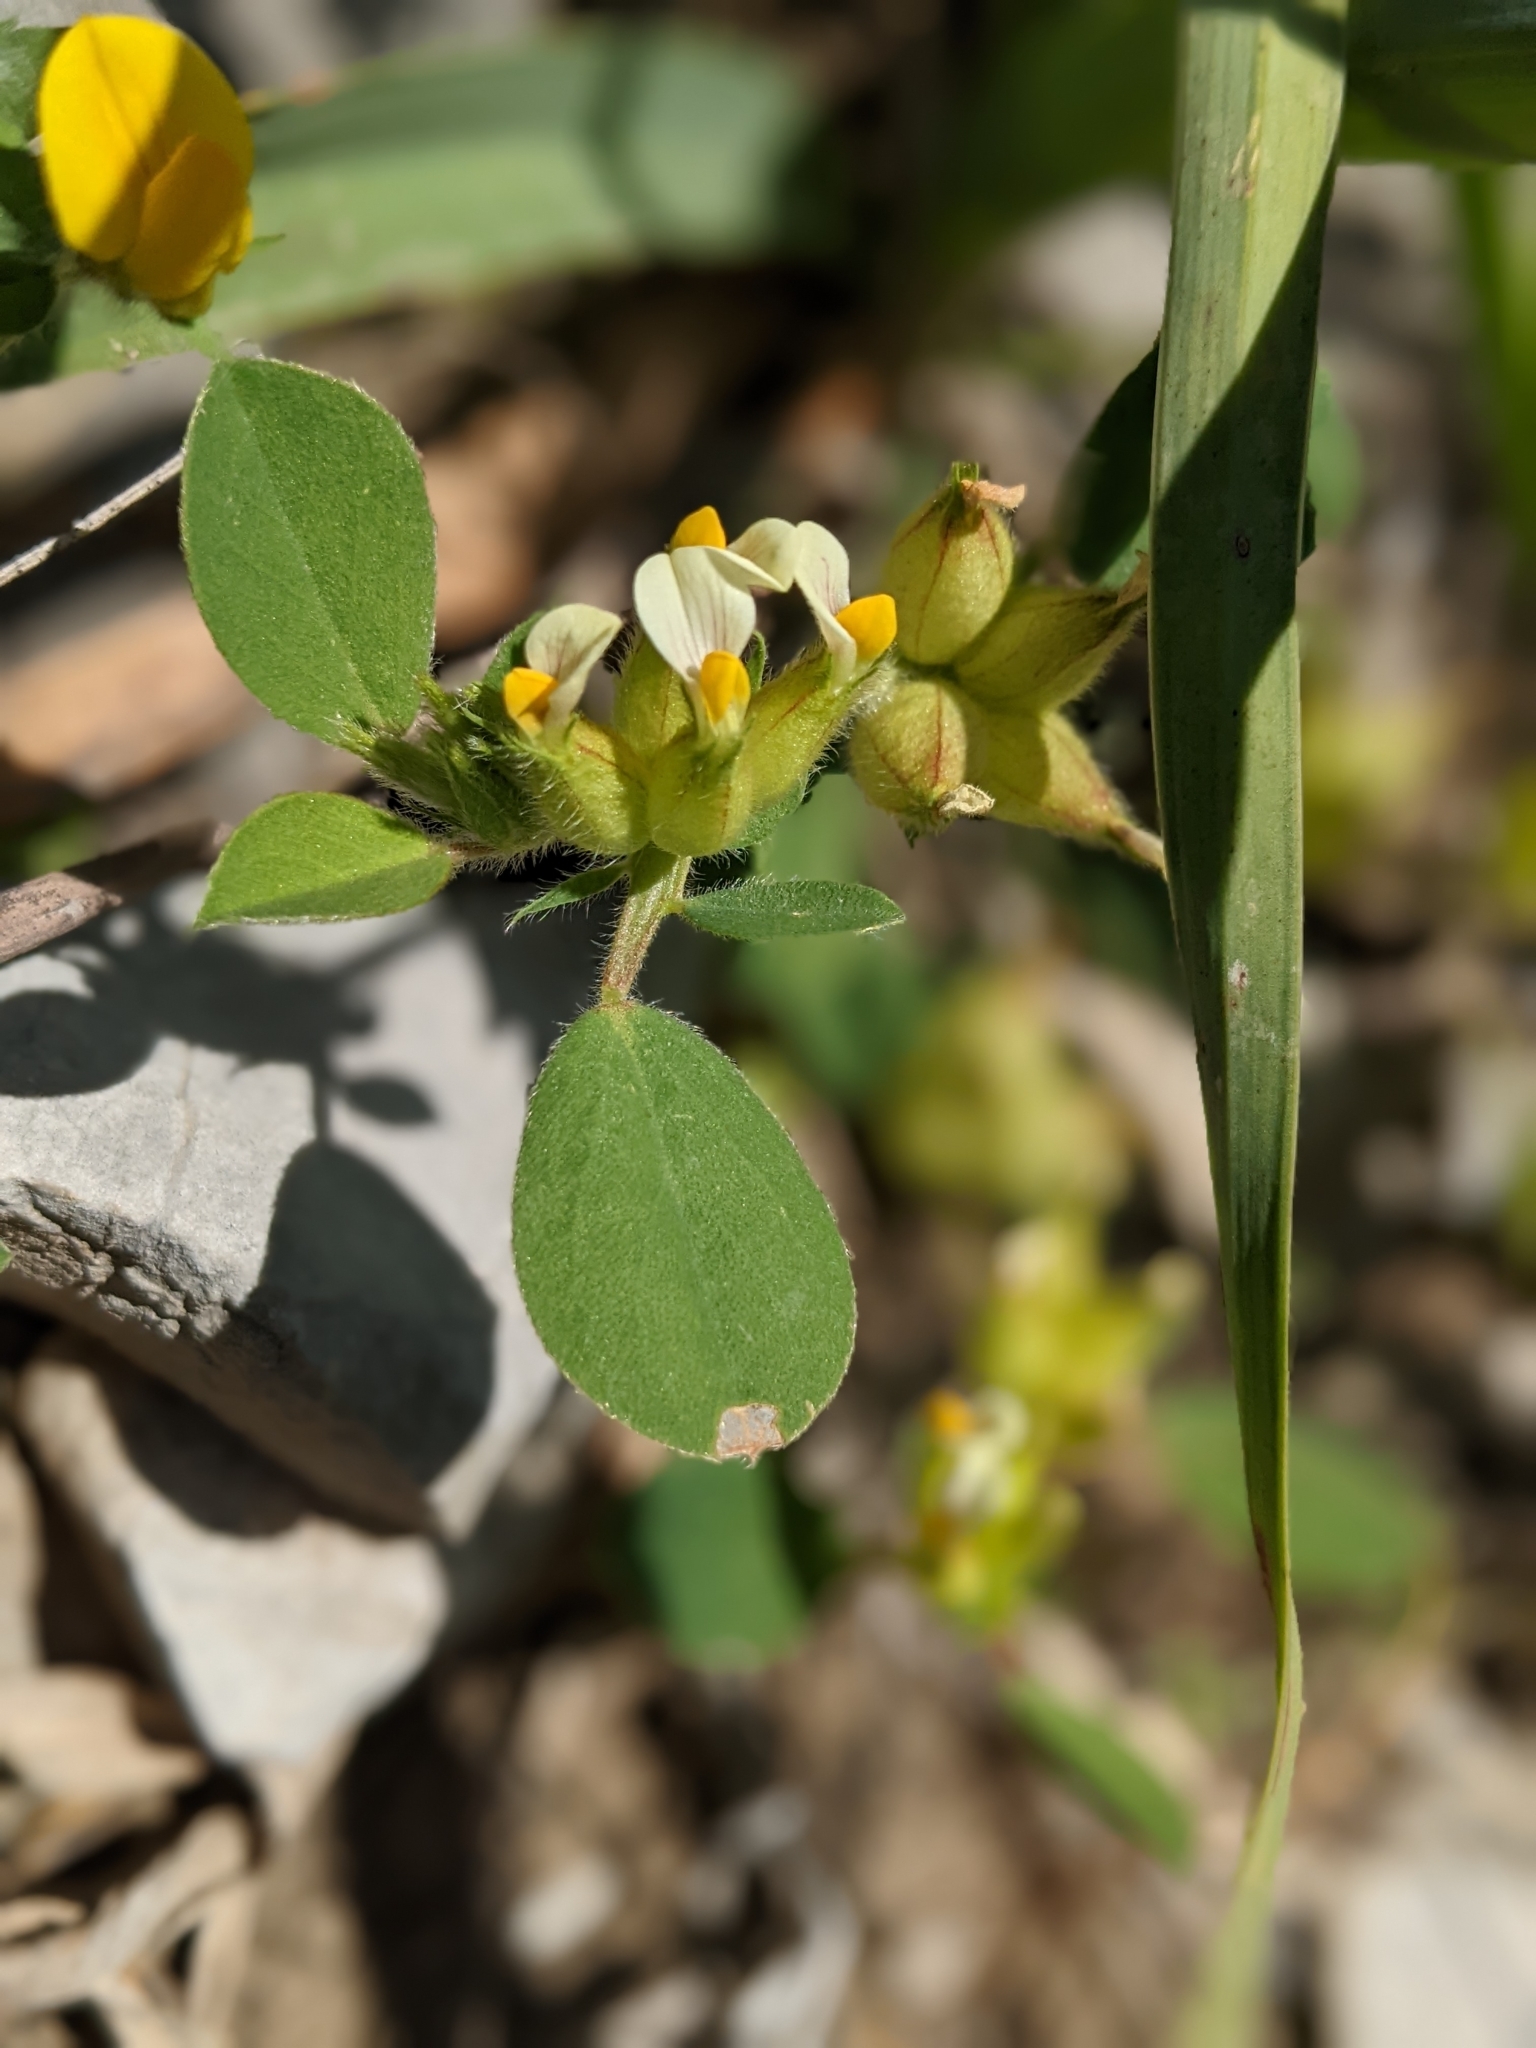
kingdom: Plantae
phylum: Tracheophyta
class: Magnoliopsida
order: Fabales
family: Fabaceae
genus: Tripodion
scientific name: Tripodion tetraphyllum
